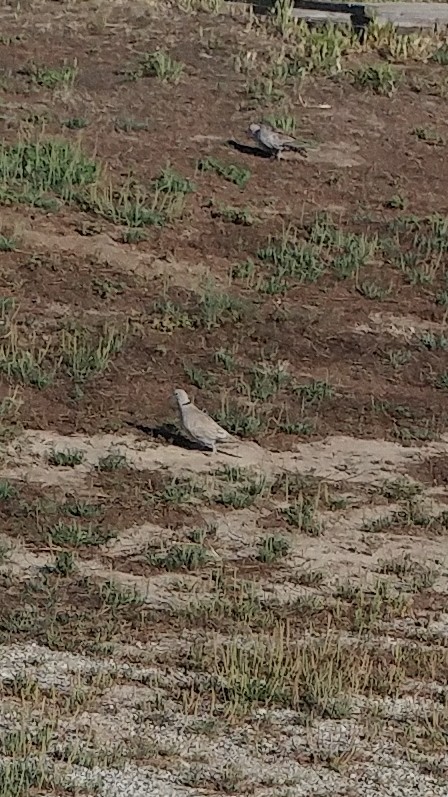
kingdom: Animalia
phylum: Chordata
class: Aves
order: Columbiformes
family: Columbidae
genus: Streptopelia
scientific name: Streptopelia decaocto
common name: Eurasian collared dove
